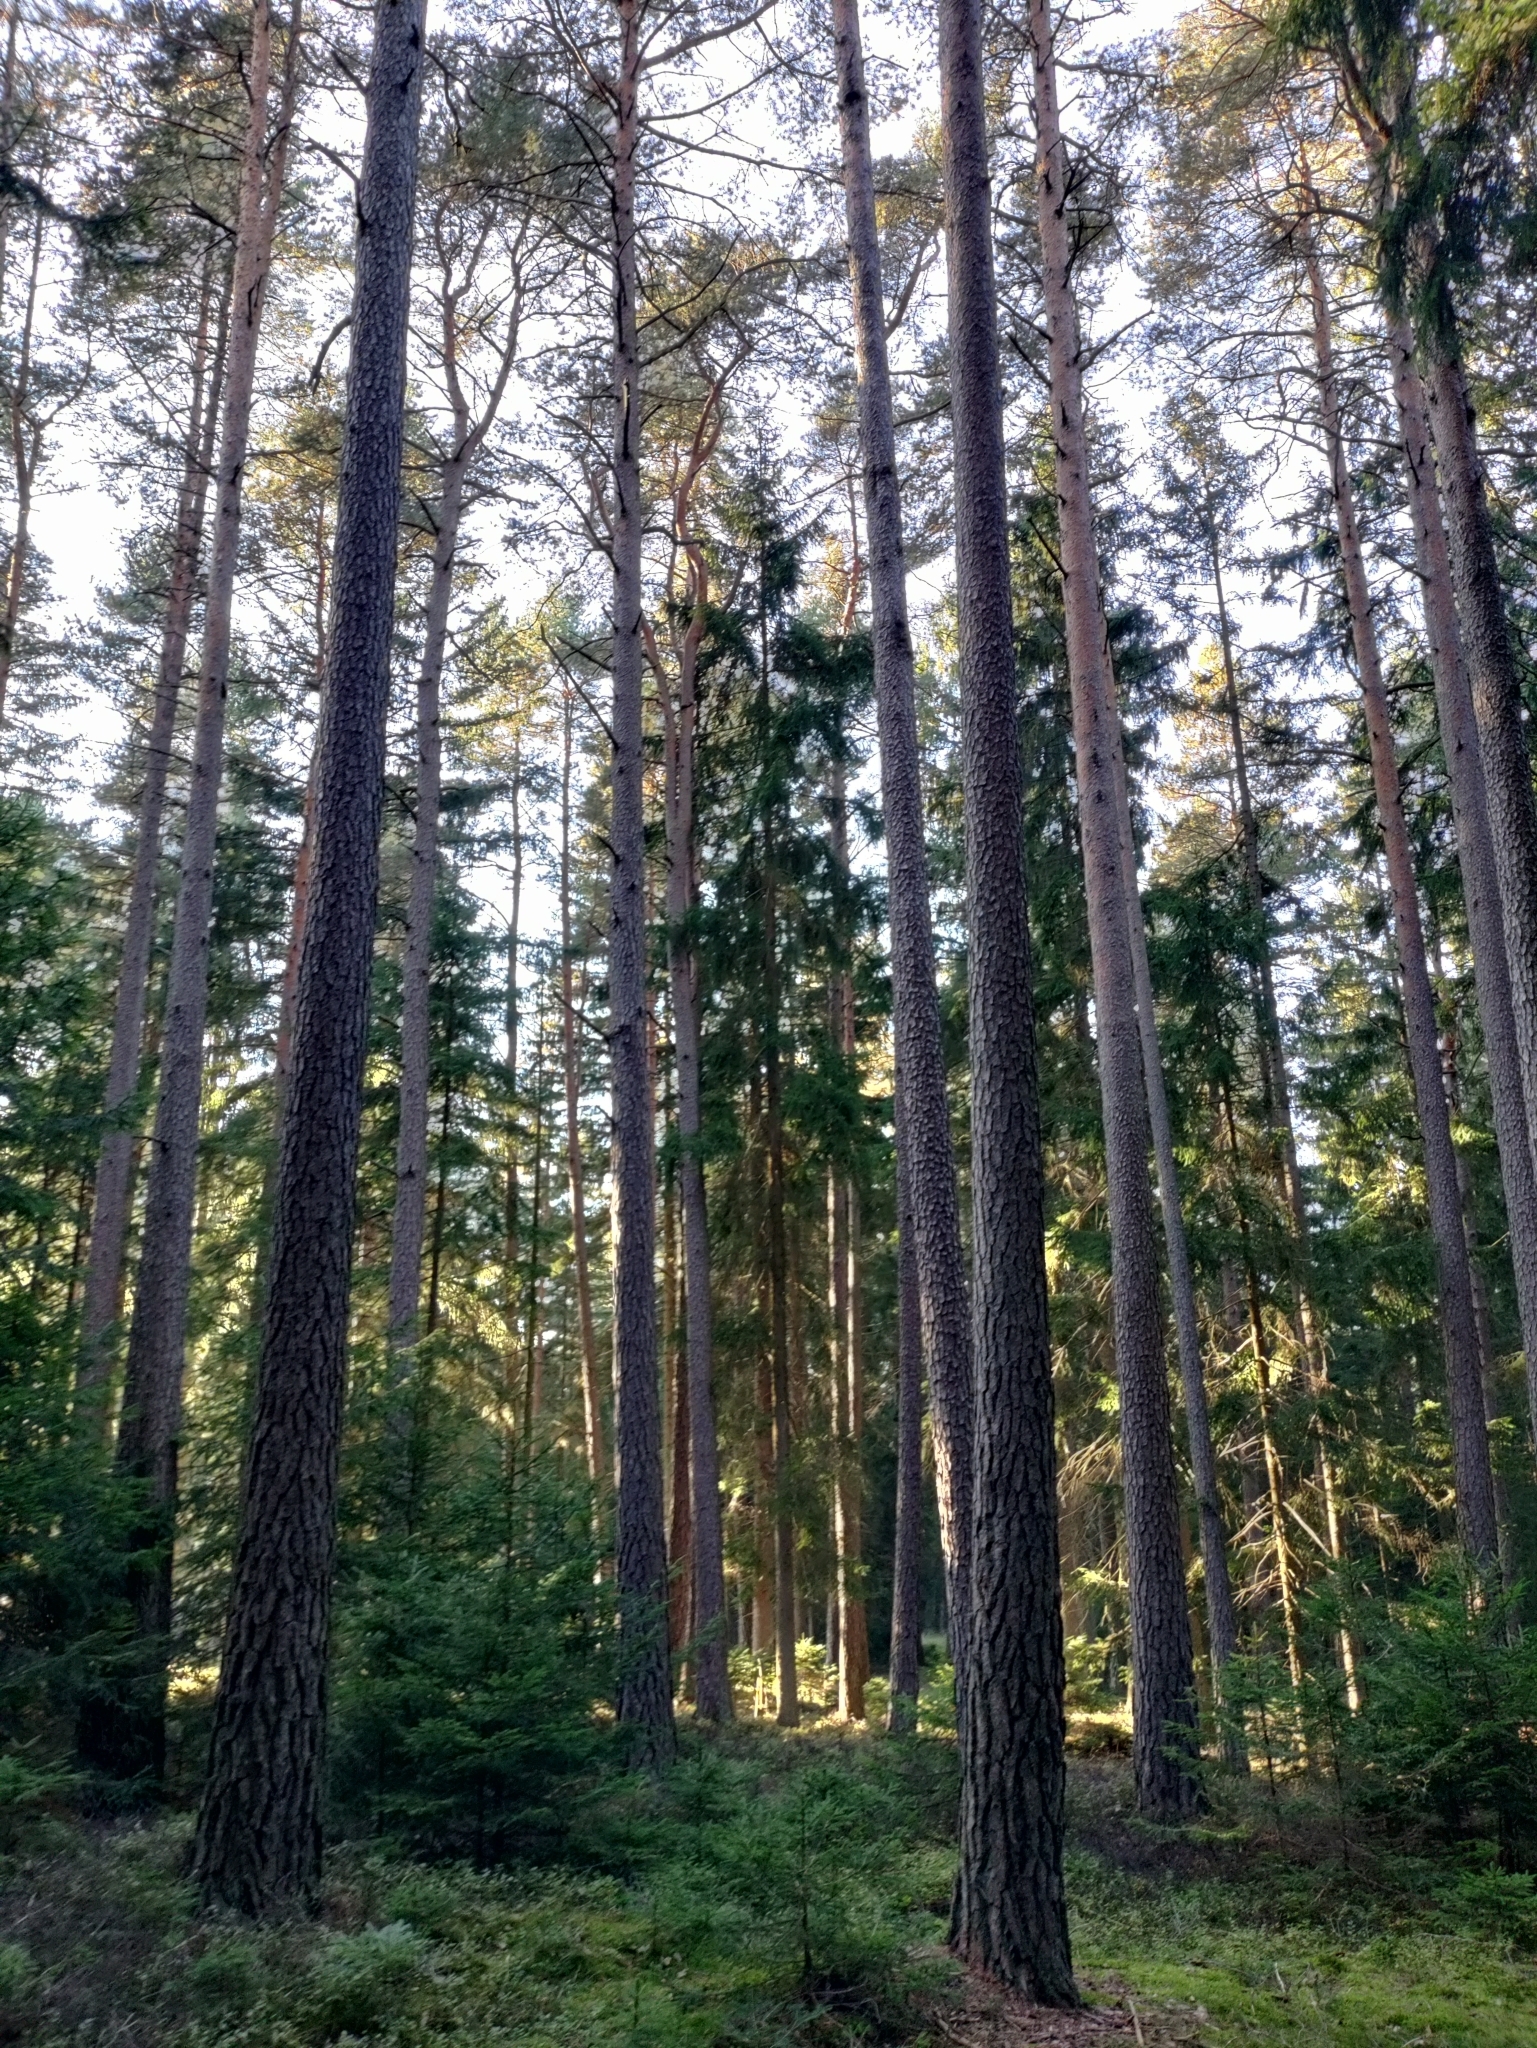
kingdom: Plantae
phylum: Tracheophyta
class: Pinopsida
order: Pinales
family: Pinaceae
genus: Pinus
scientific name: Pinus sylvestris
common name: Scots pine
